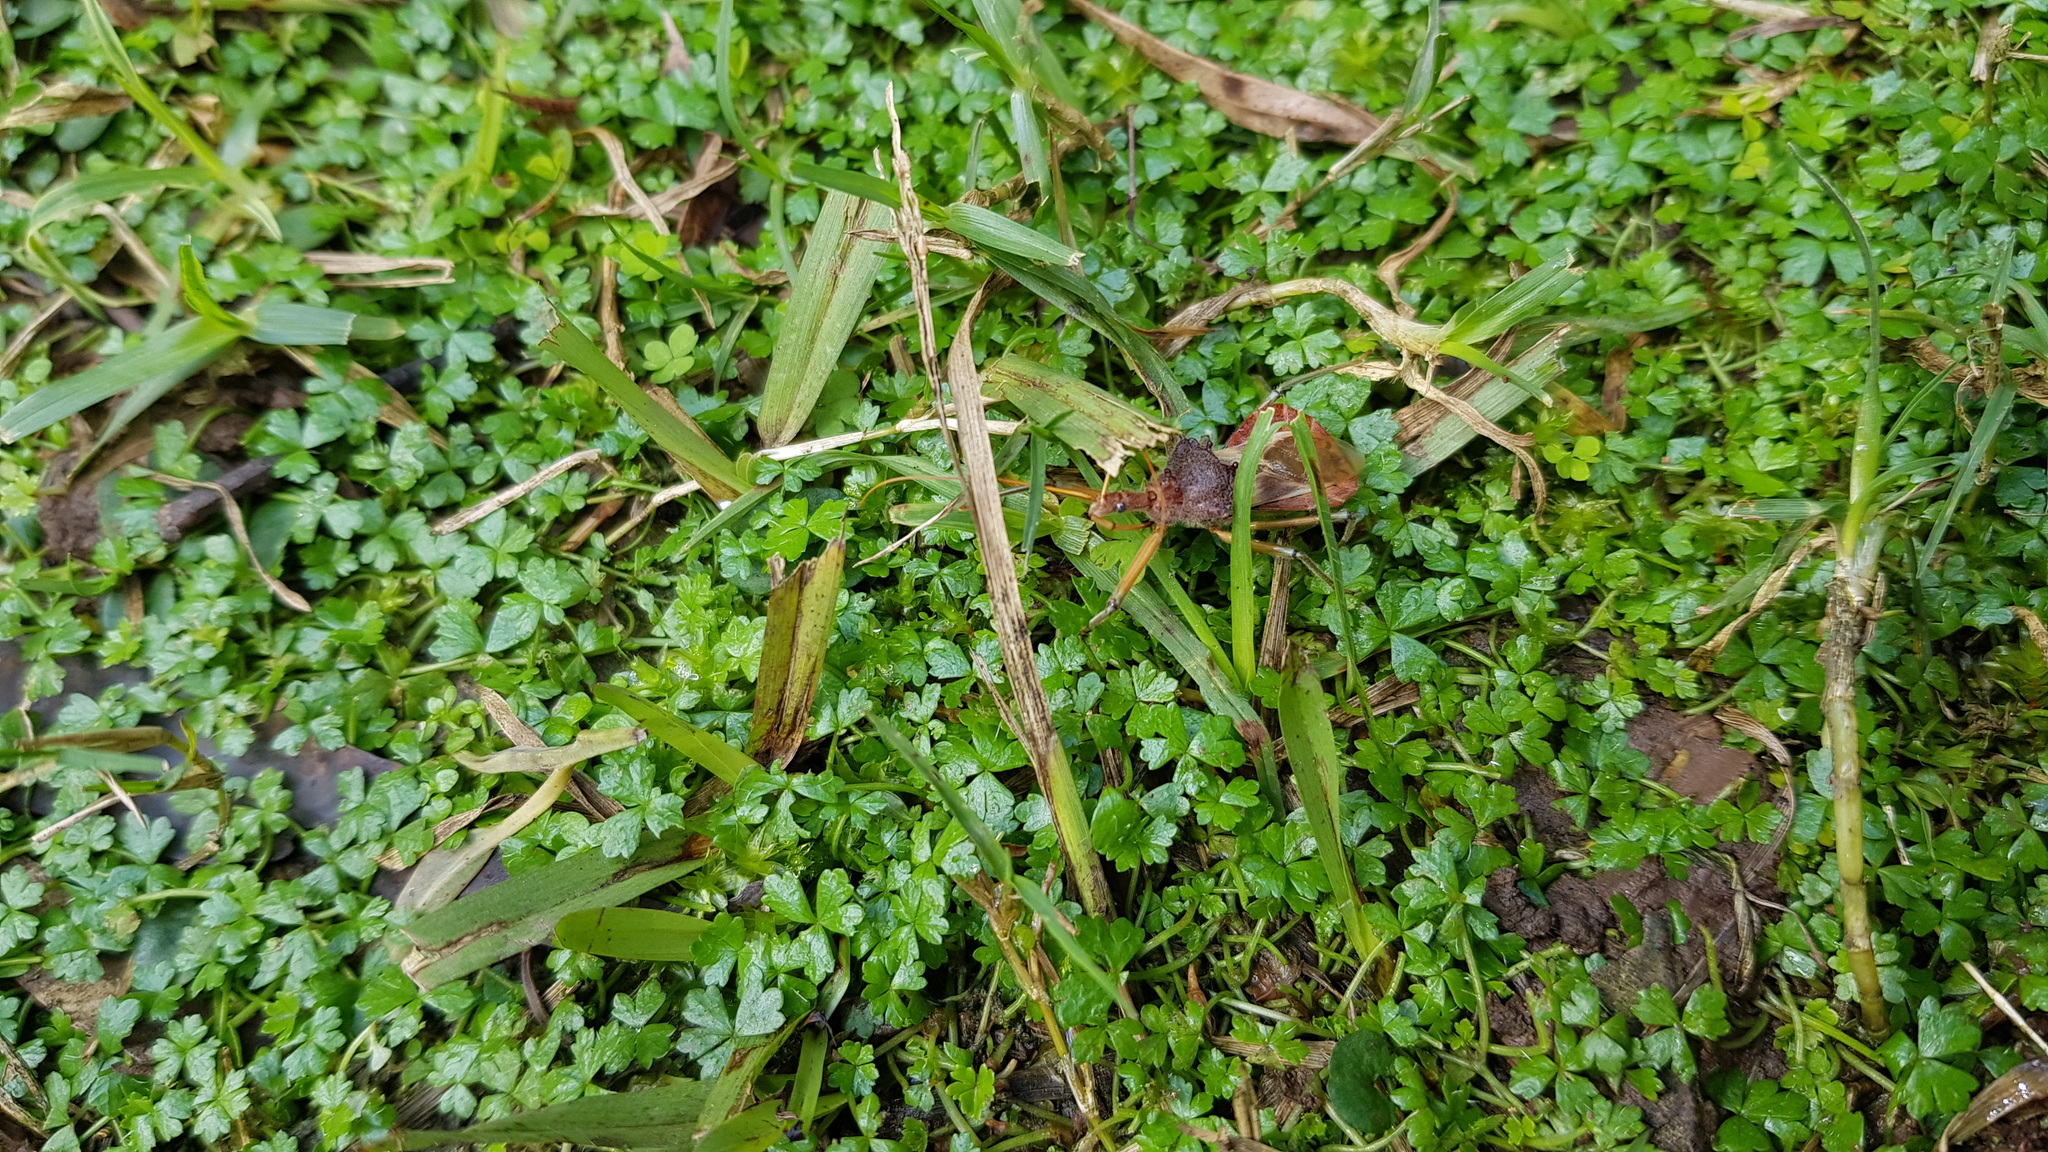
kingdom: Animalia
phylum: Arthropoda
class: Insecta
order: Hemiptera
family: Reduviidae
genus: Pristhesancus
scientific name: Pristhesancus plagipennis
